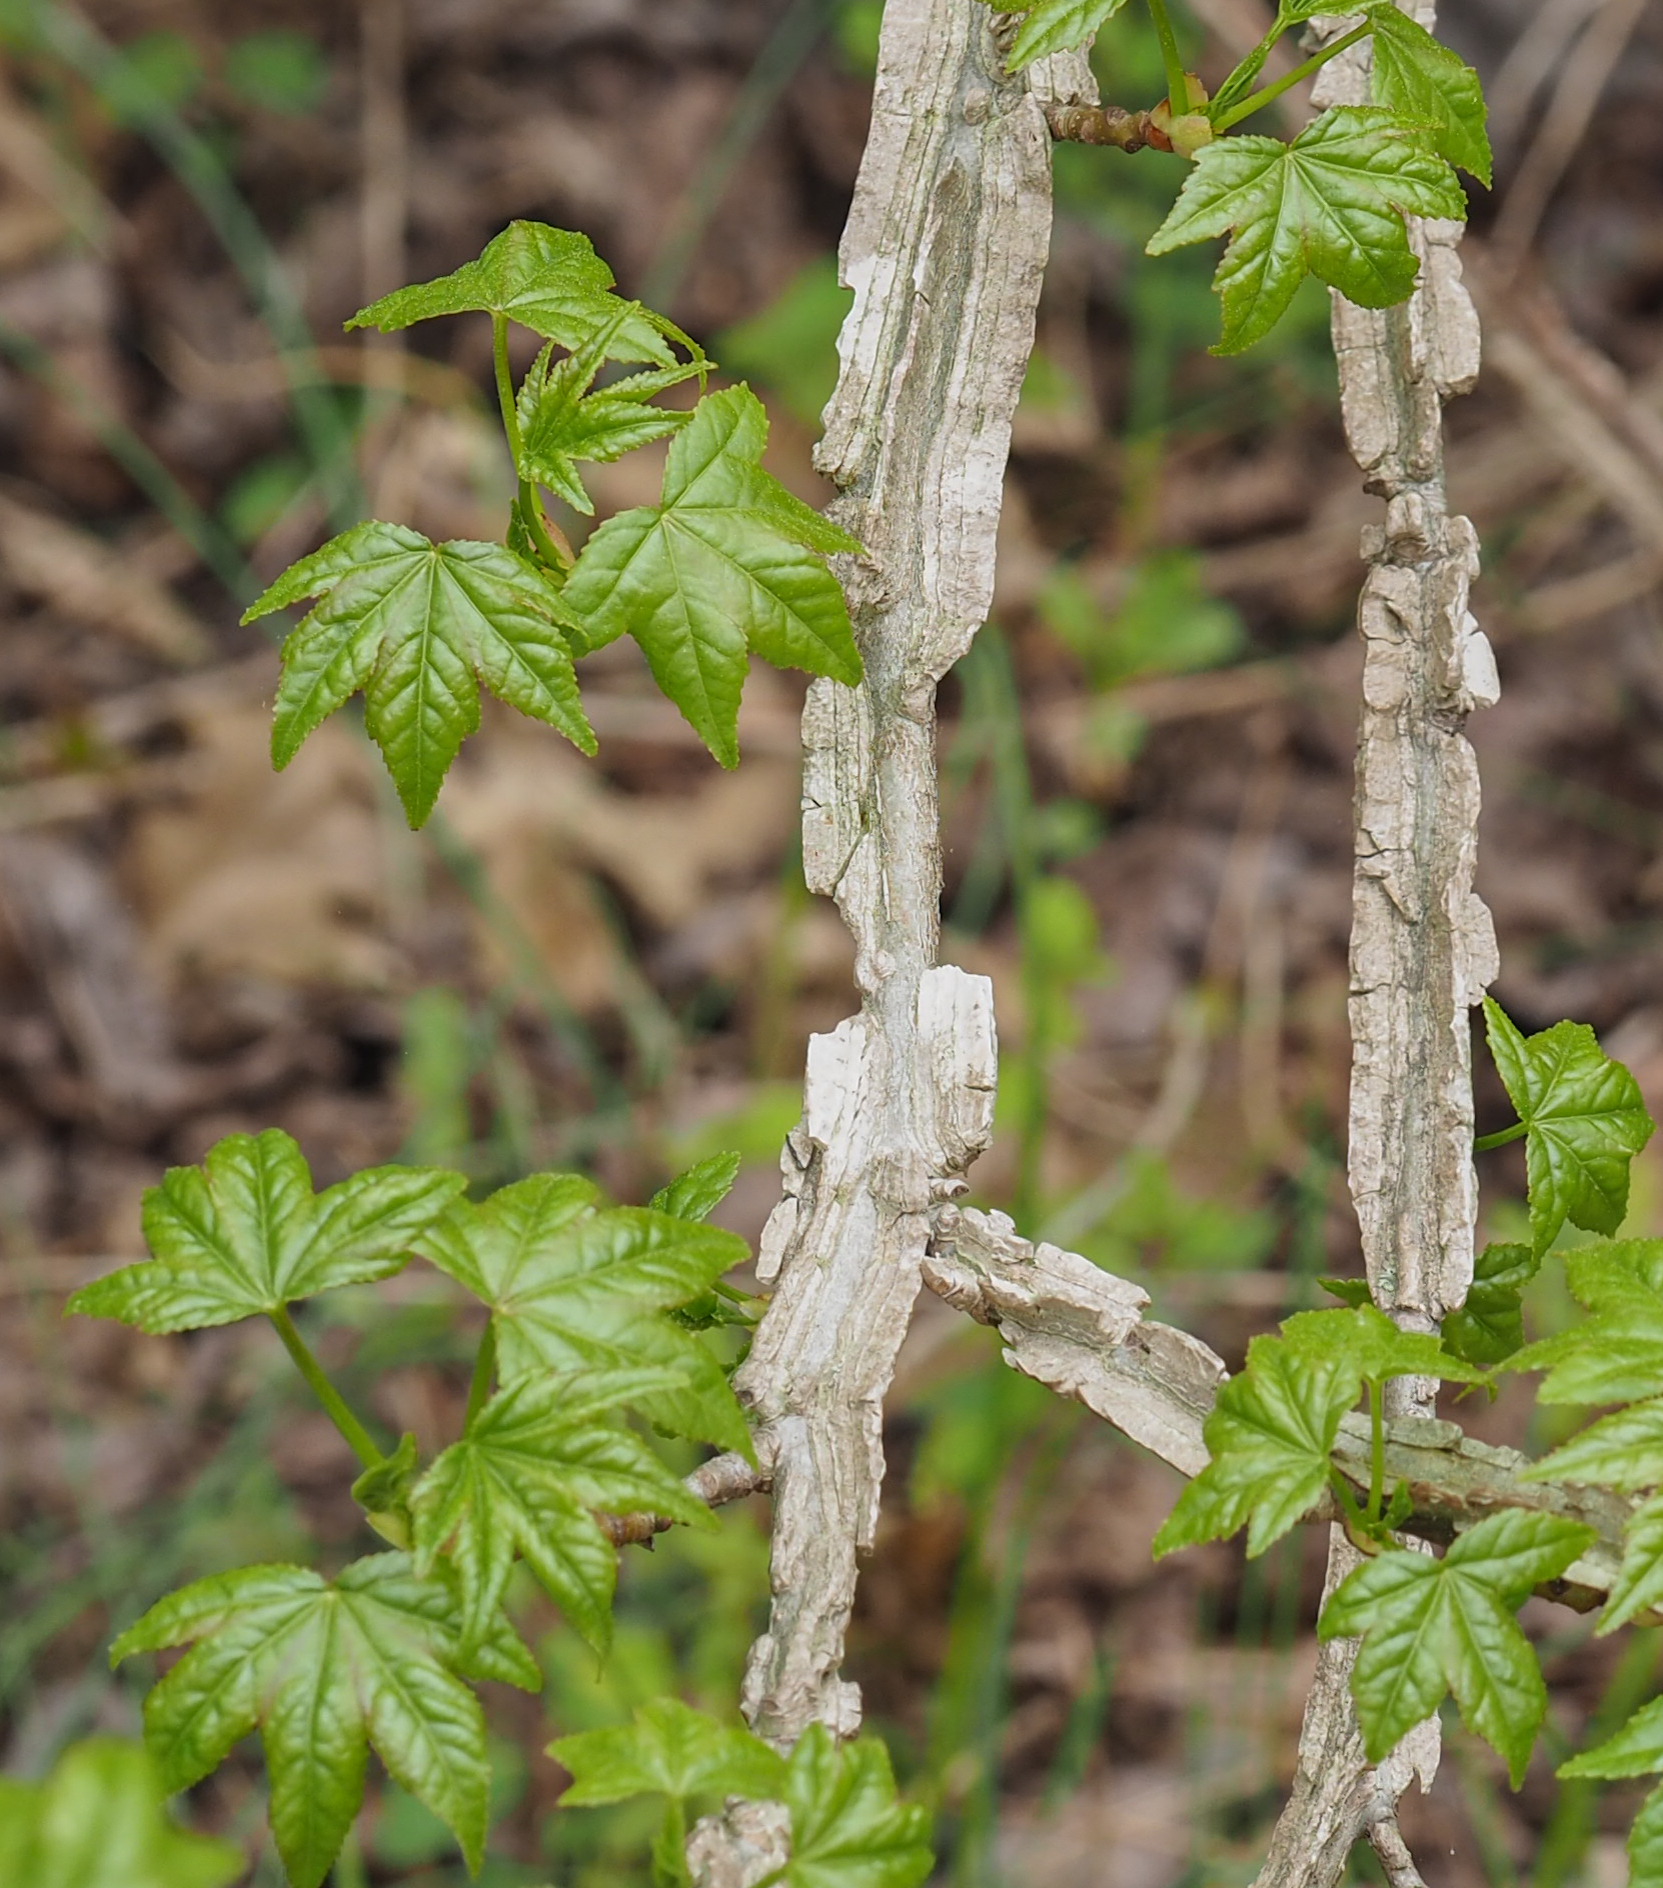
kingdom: Plantae
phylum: Tracheophyta
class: Magnoliopsida
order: Saxifragales
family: Altingiaceae
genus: Liquidambar
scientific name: Liquidambar styraciflua
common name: Sweet gum
